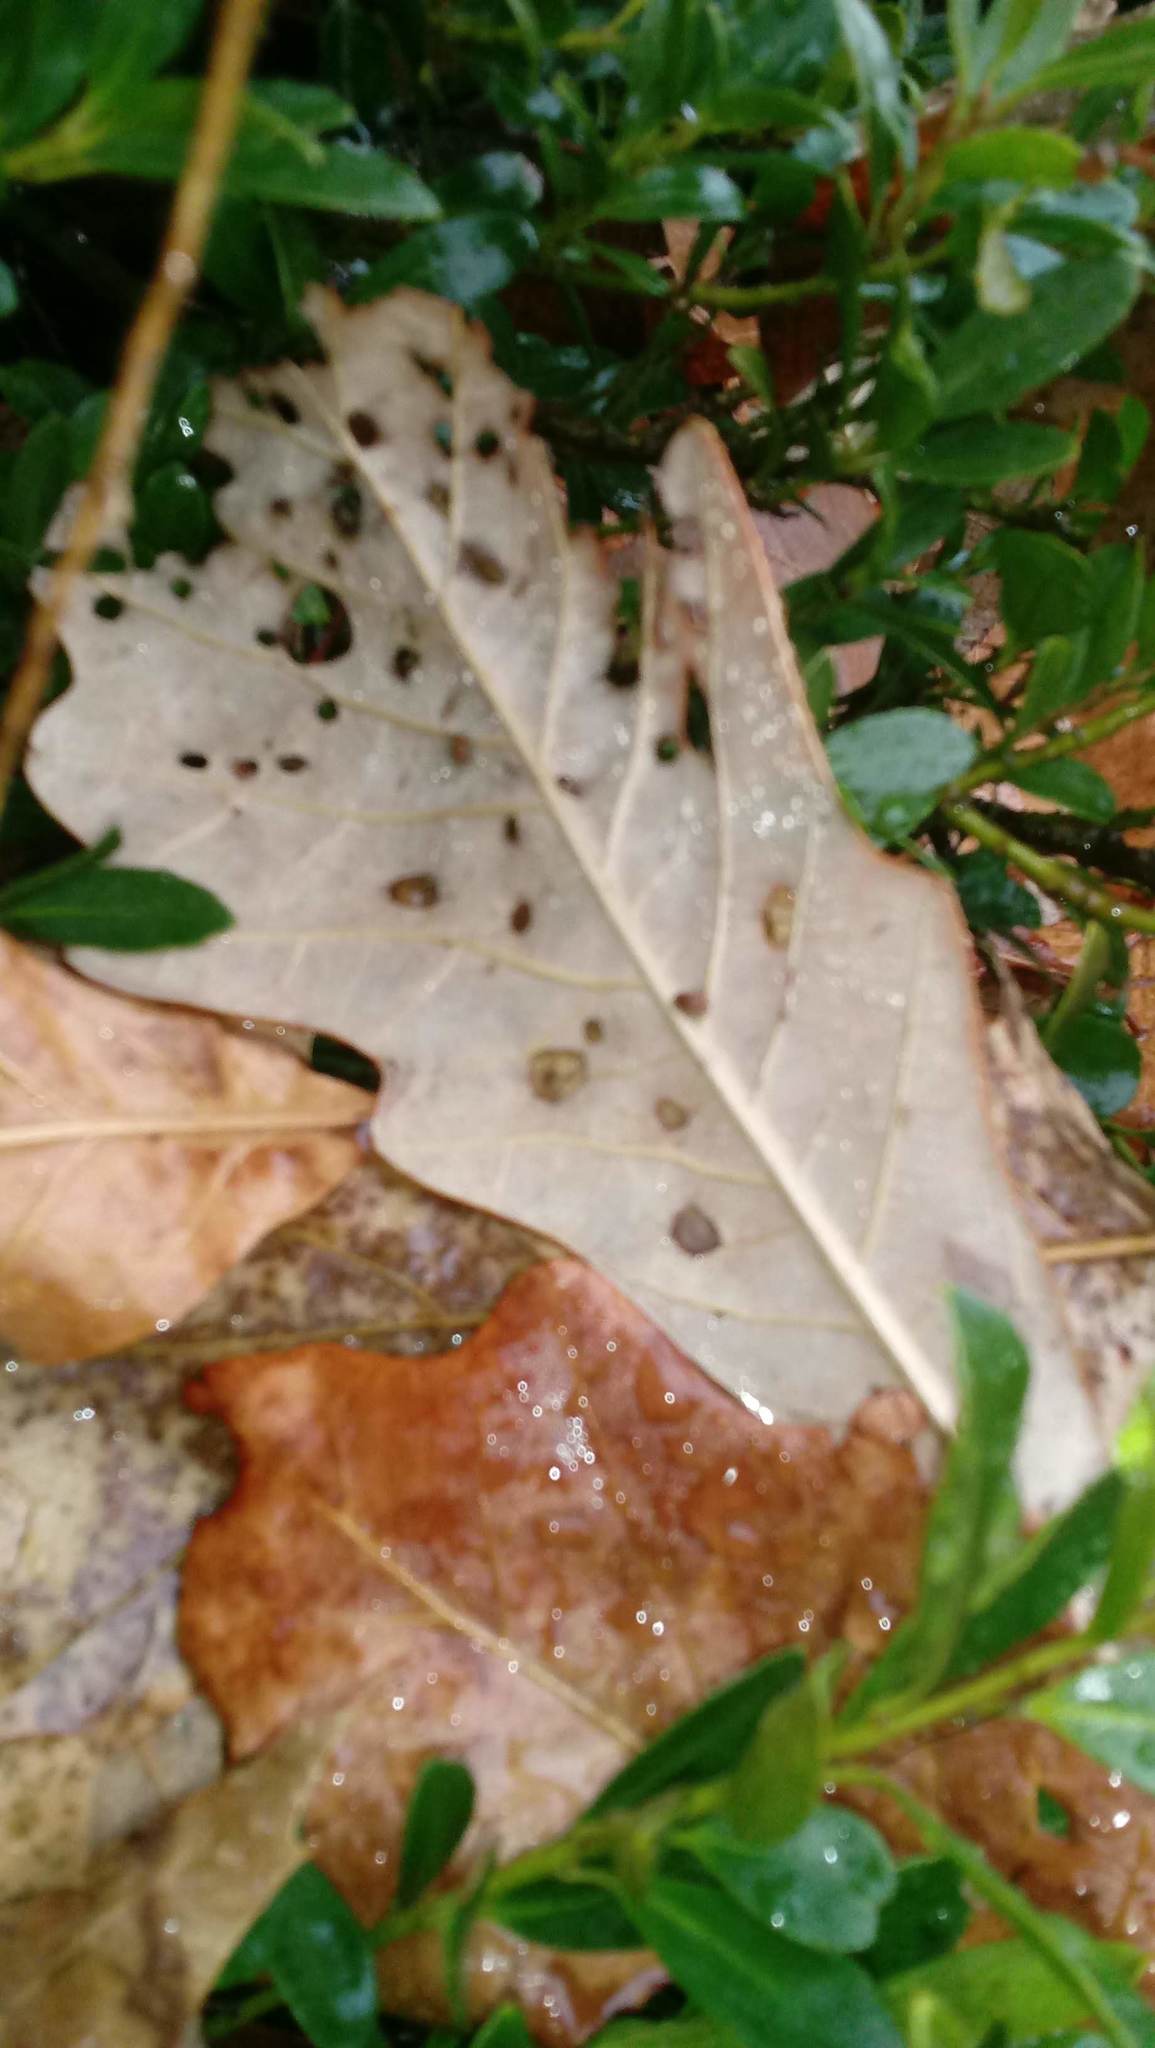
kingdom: Animalia
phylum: Arthropoda
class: Insecta
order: Hymenoptera
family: Cynipidae
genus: Andricus
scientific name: Andricus Druon ignotum
